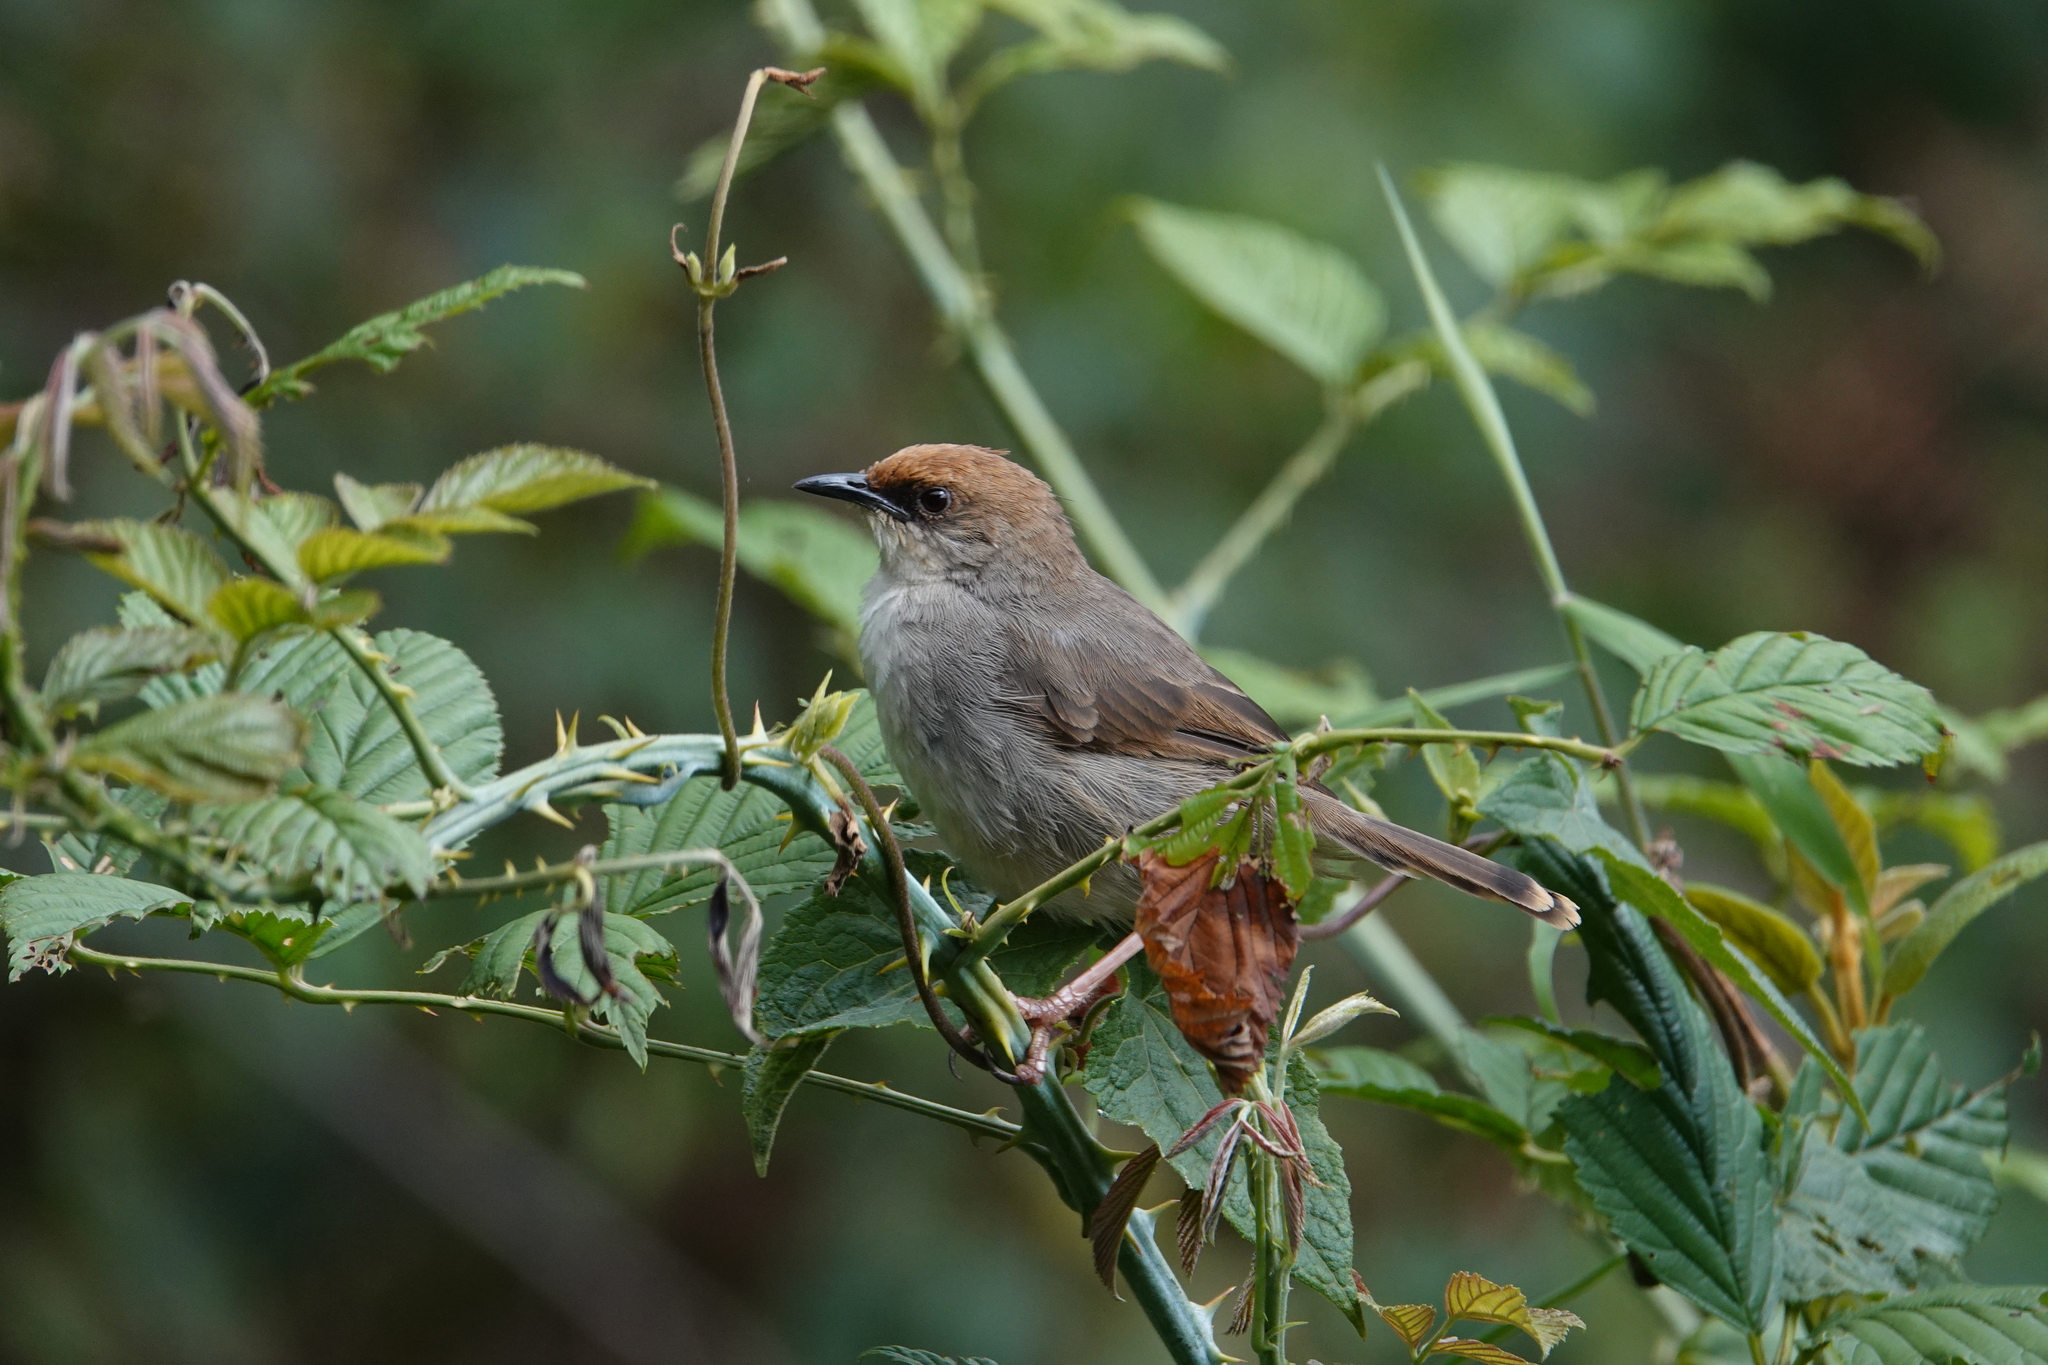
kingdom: Animalia
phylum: Chordata
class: Aves
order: Passeriformes
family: Cisticolidae
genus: Cisticola
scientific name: Cisticola chubbi
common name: Chubb's cisticola
